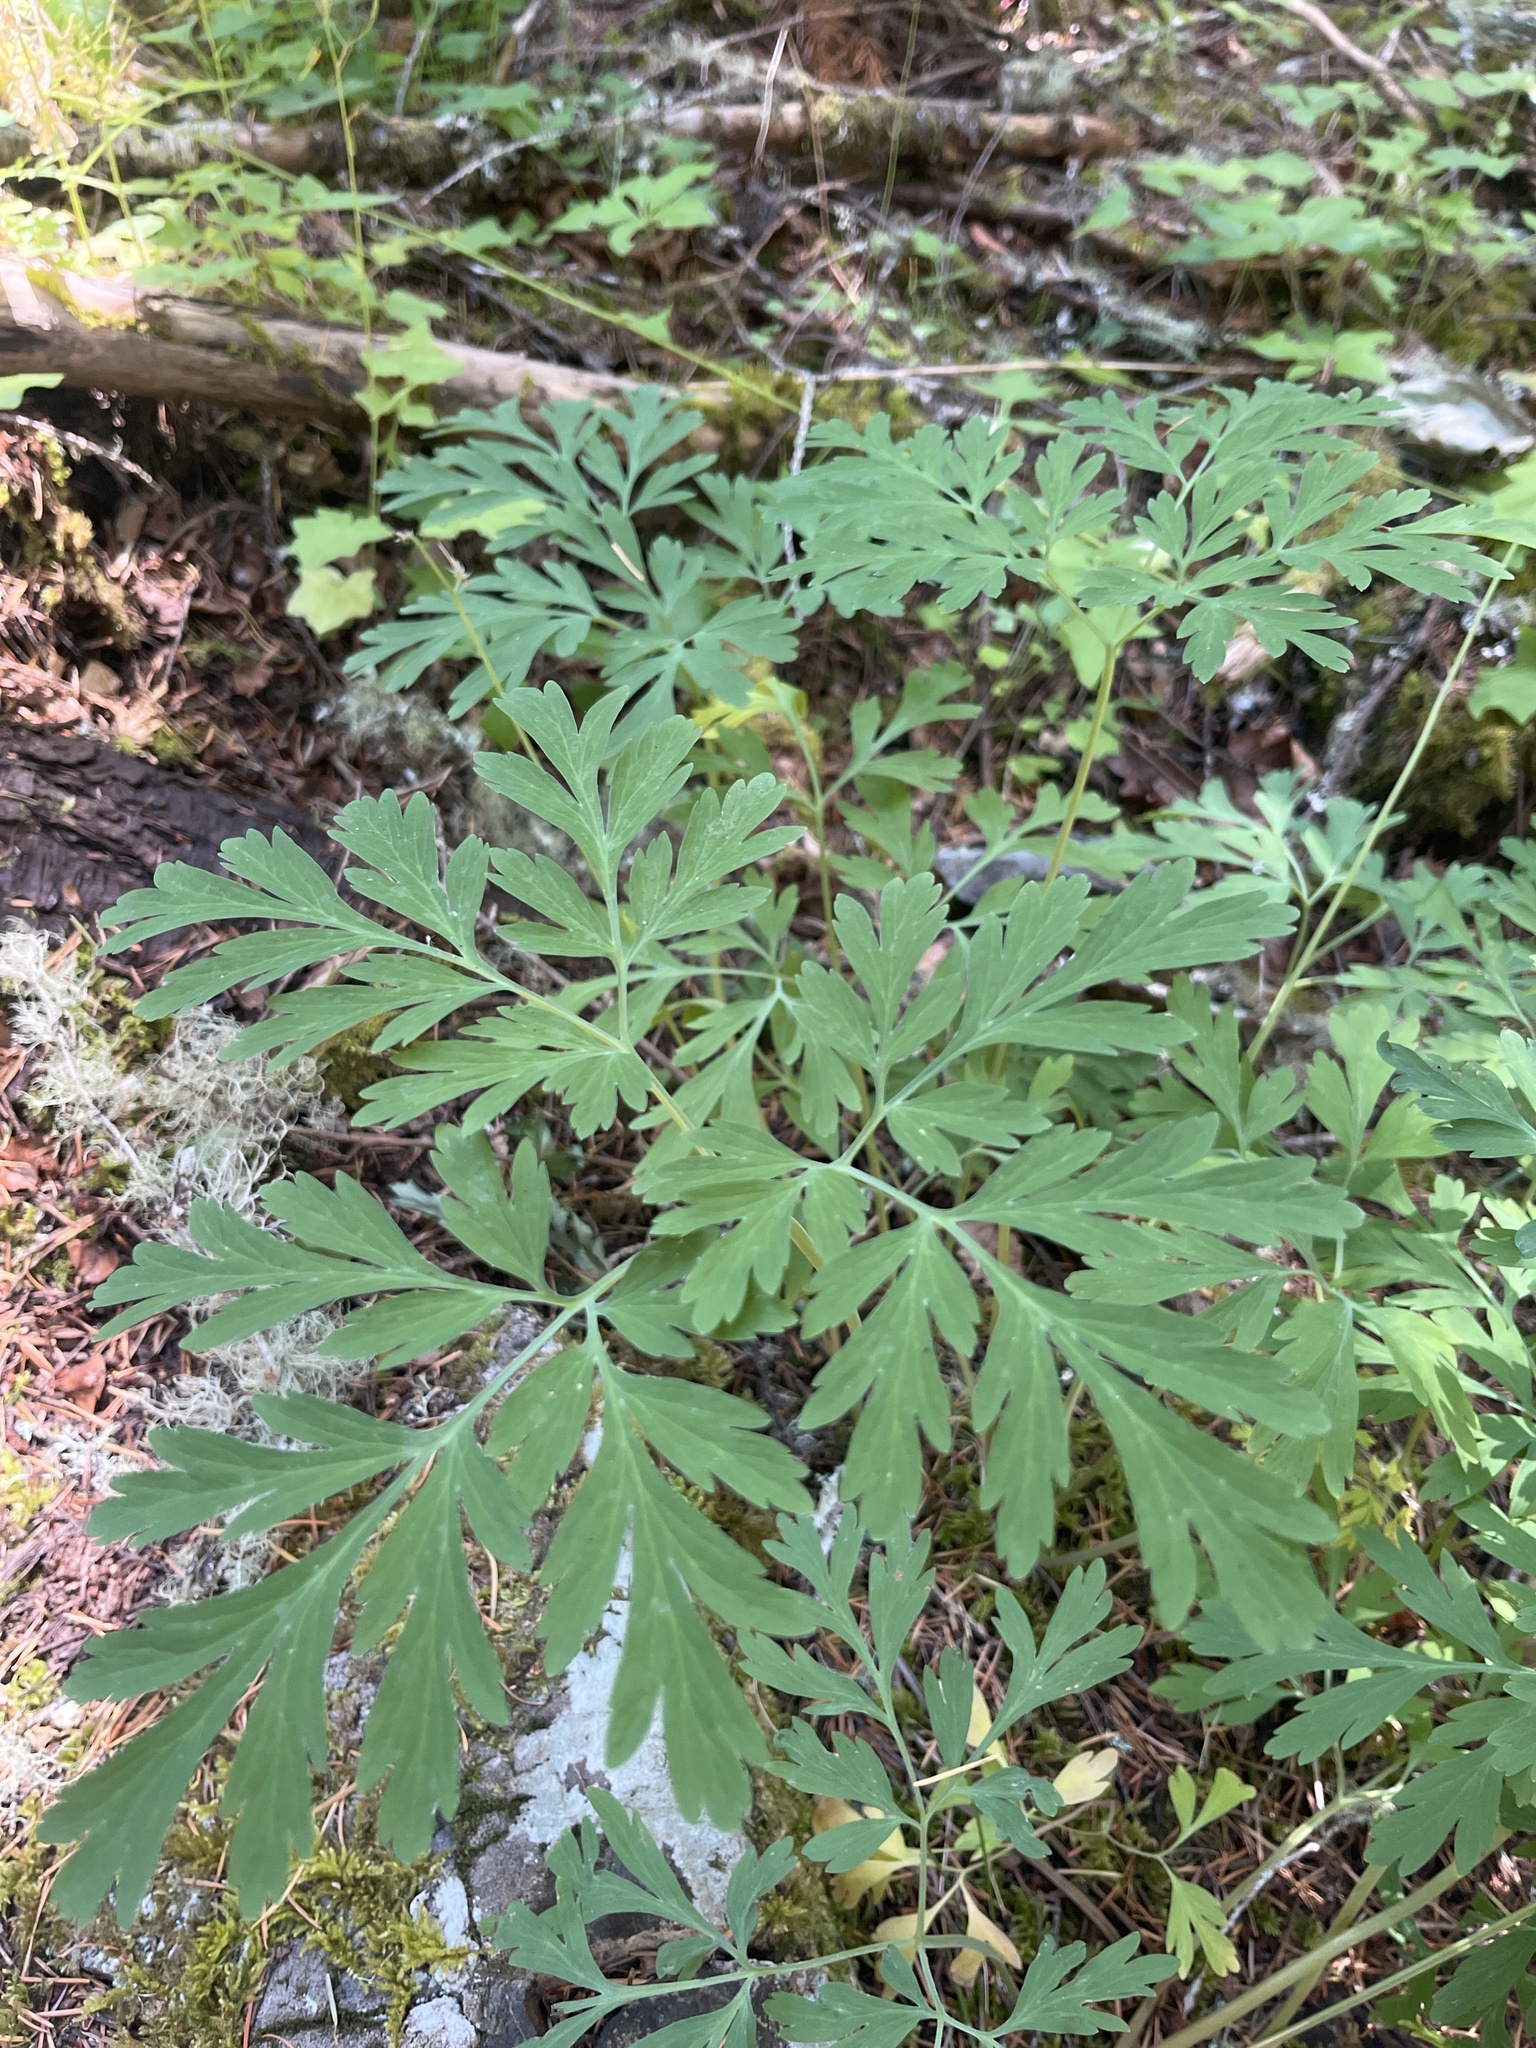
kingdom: Plantae
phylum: Tracheophyta
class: Magnoliopsida
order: Ranunculales
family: Papaveraceae
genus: Dicentra
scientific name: Dicentra formosa
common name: Bleeding-heart
